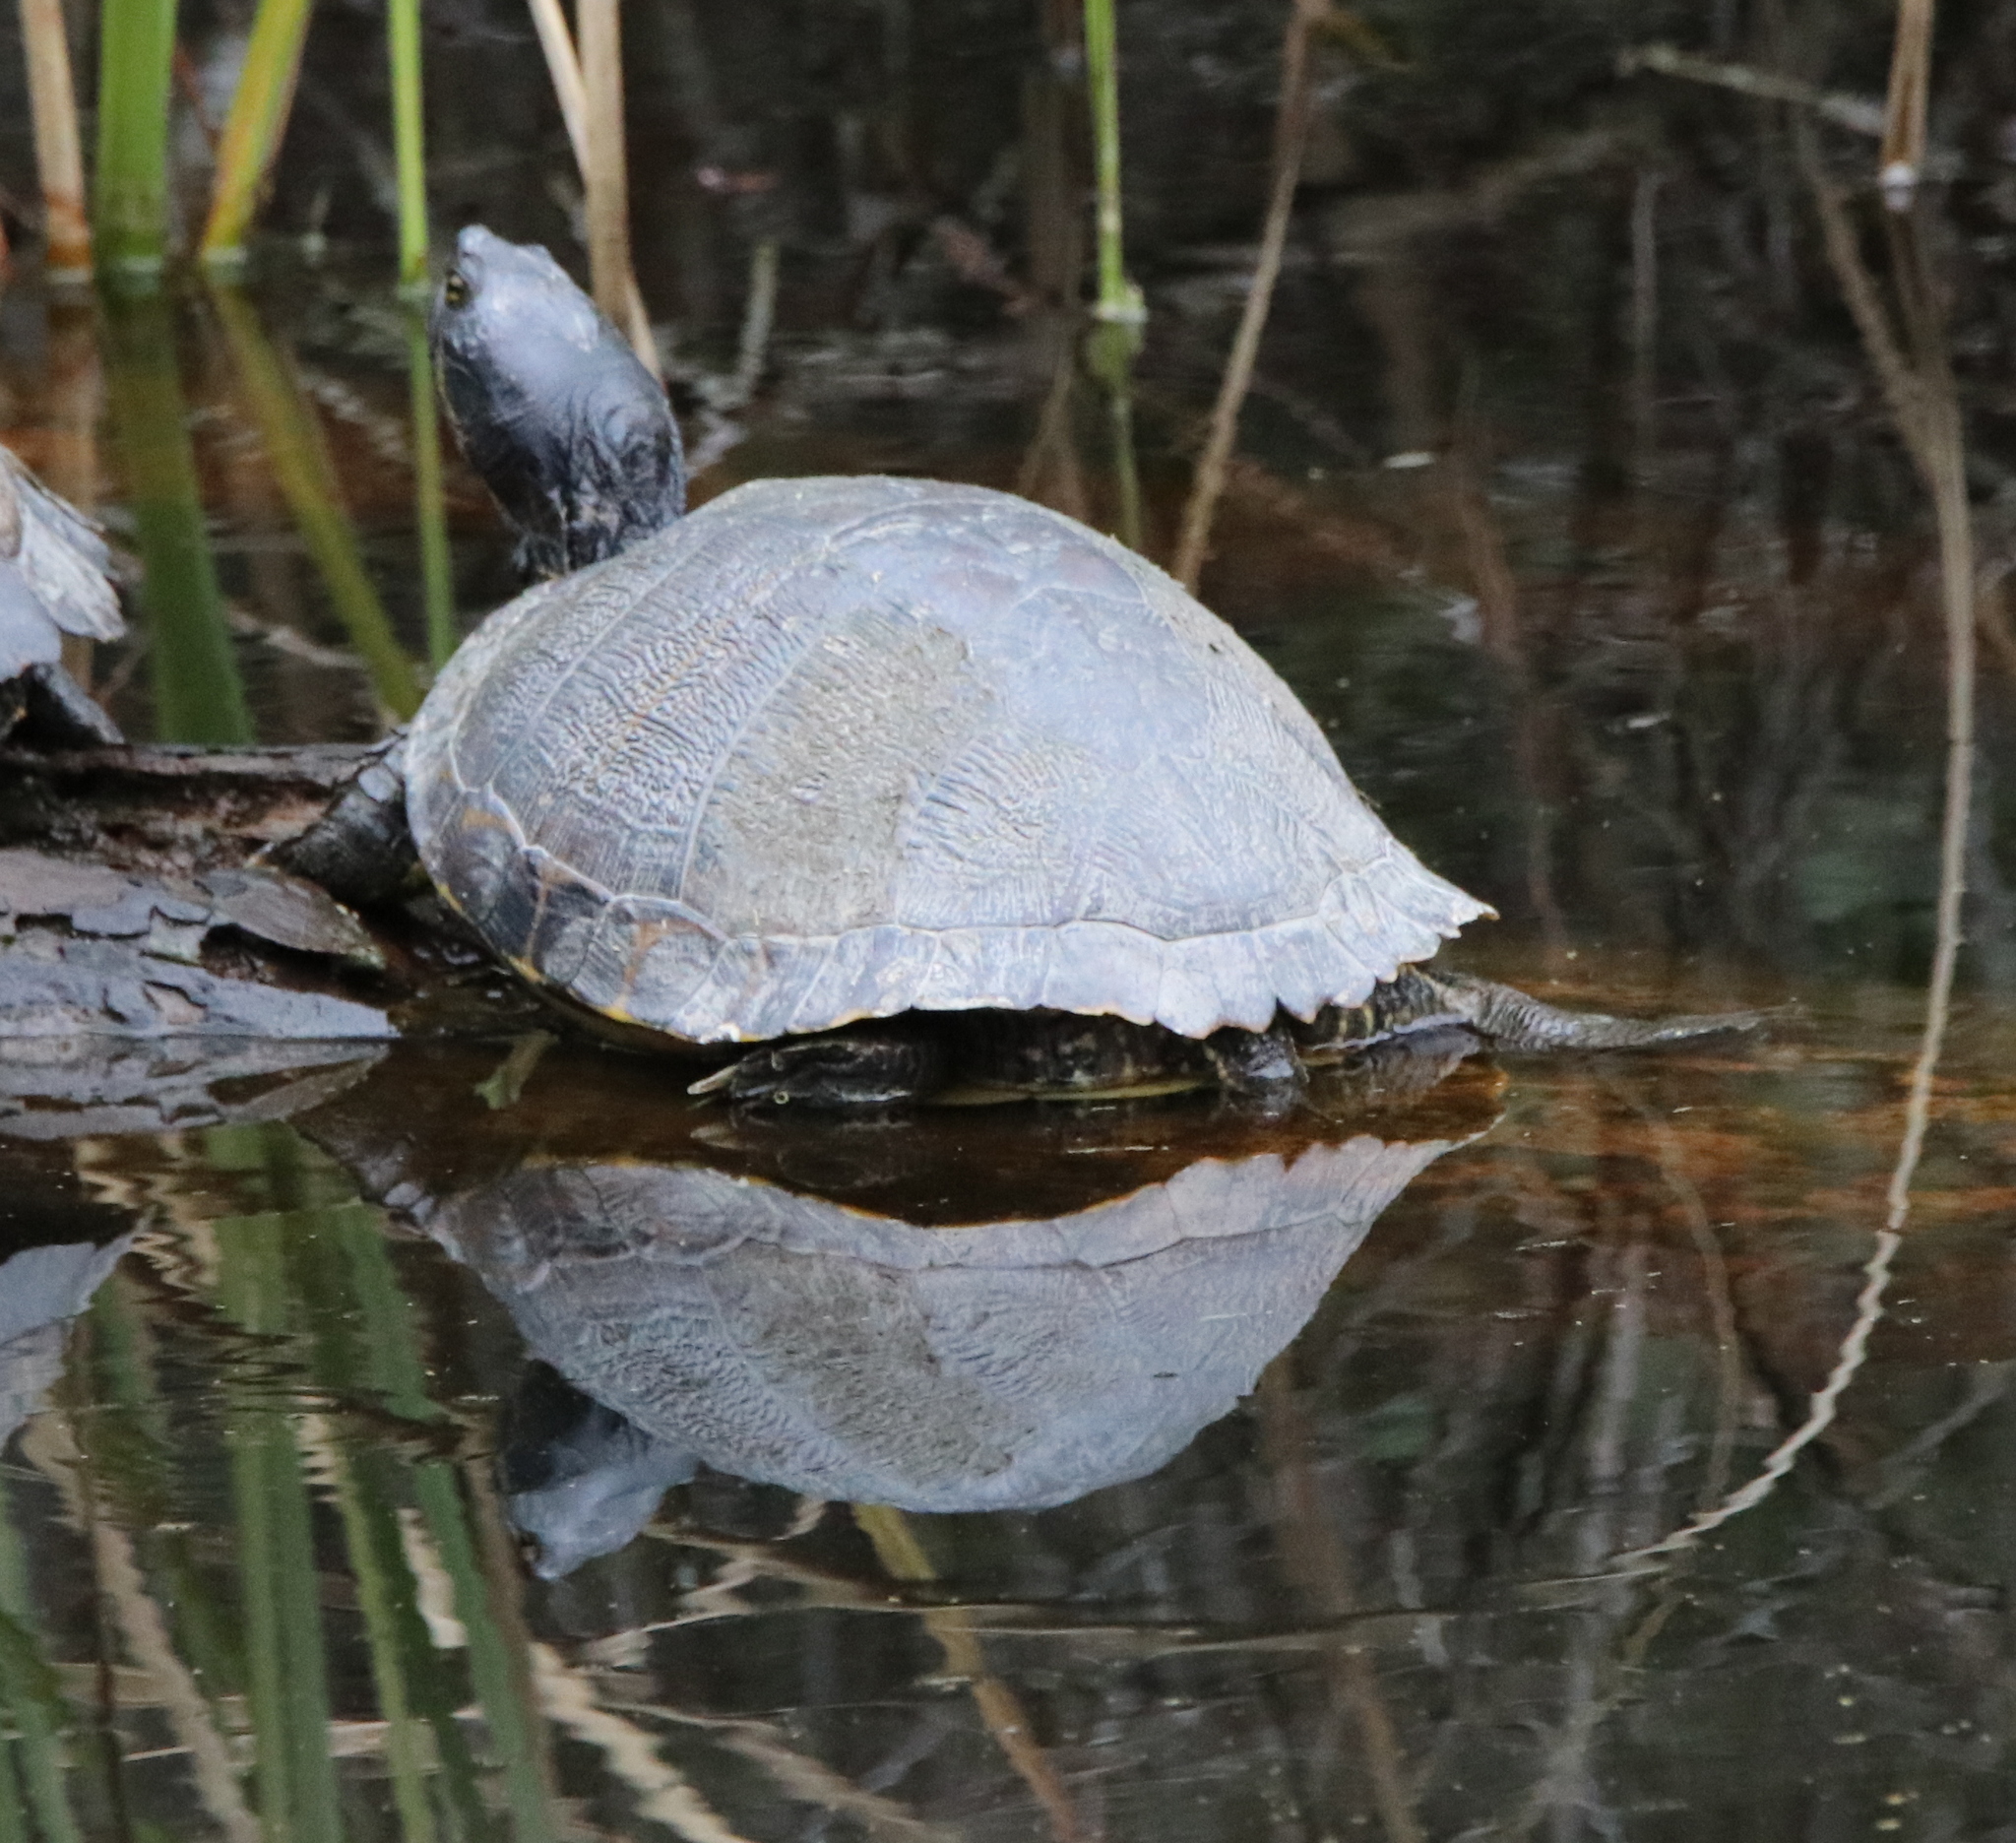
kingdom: Animalia
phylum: Chordata
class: Testudines
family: Emydidae
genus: Trachemys
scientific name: Trachemys scripta
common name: Slider
